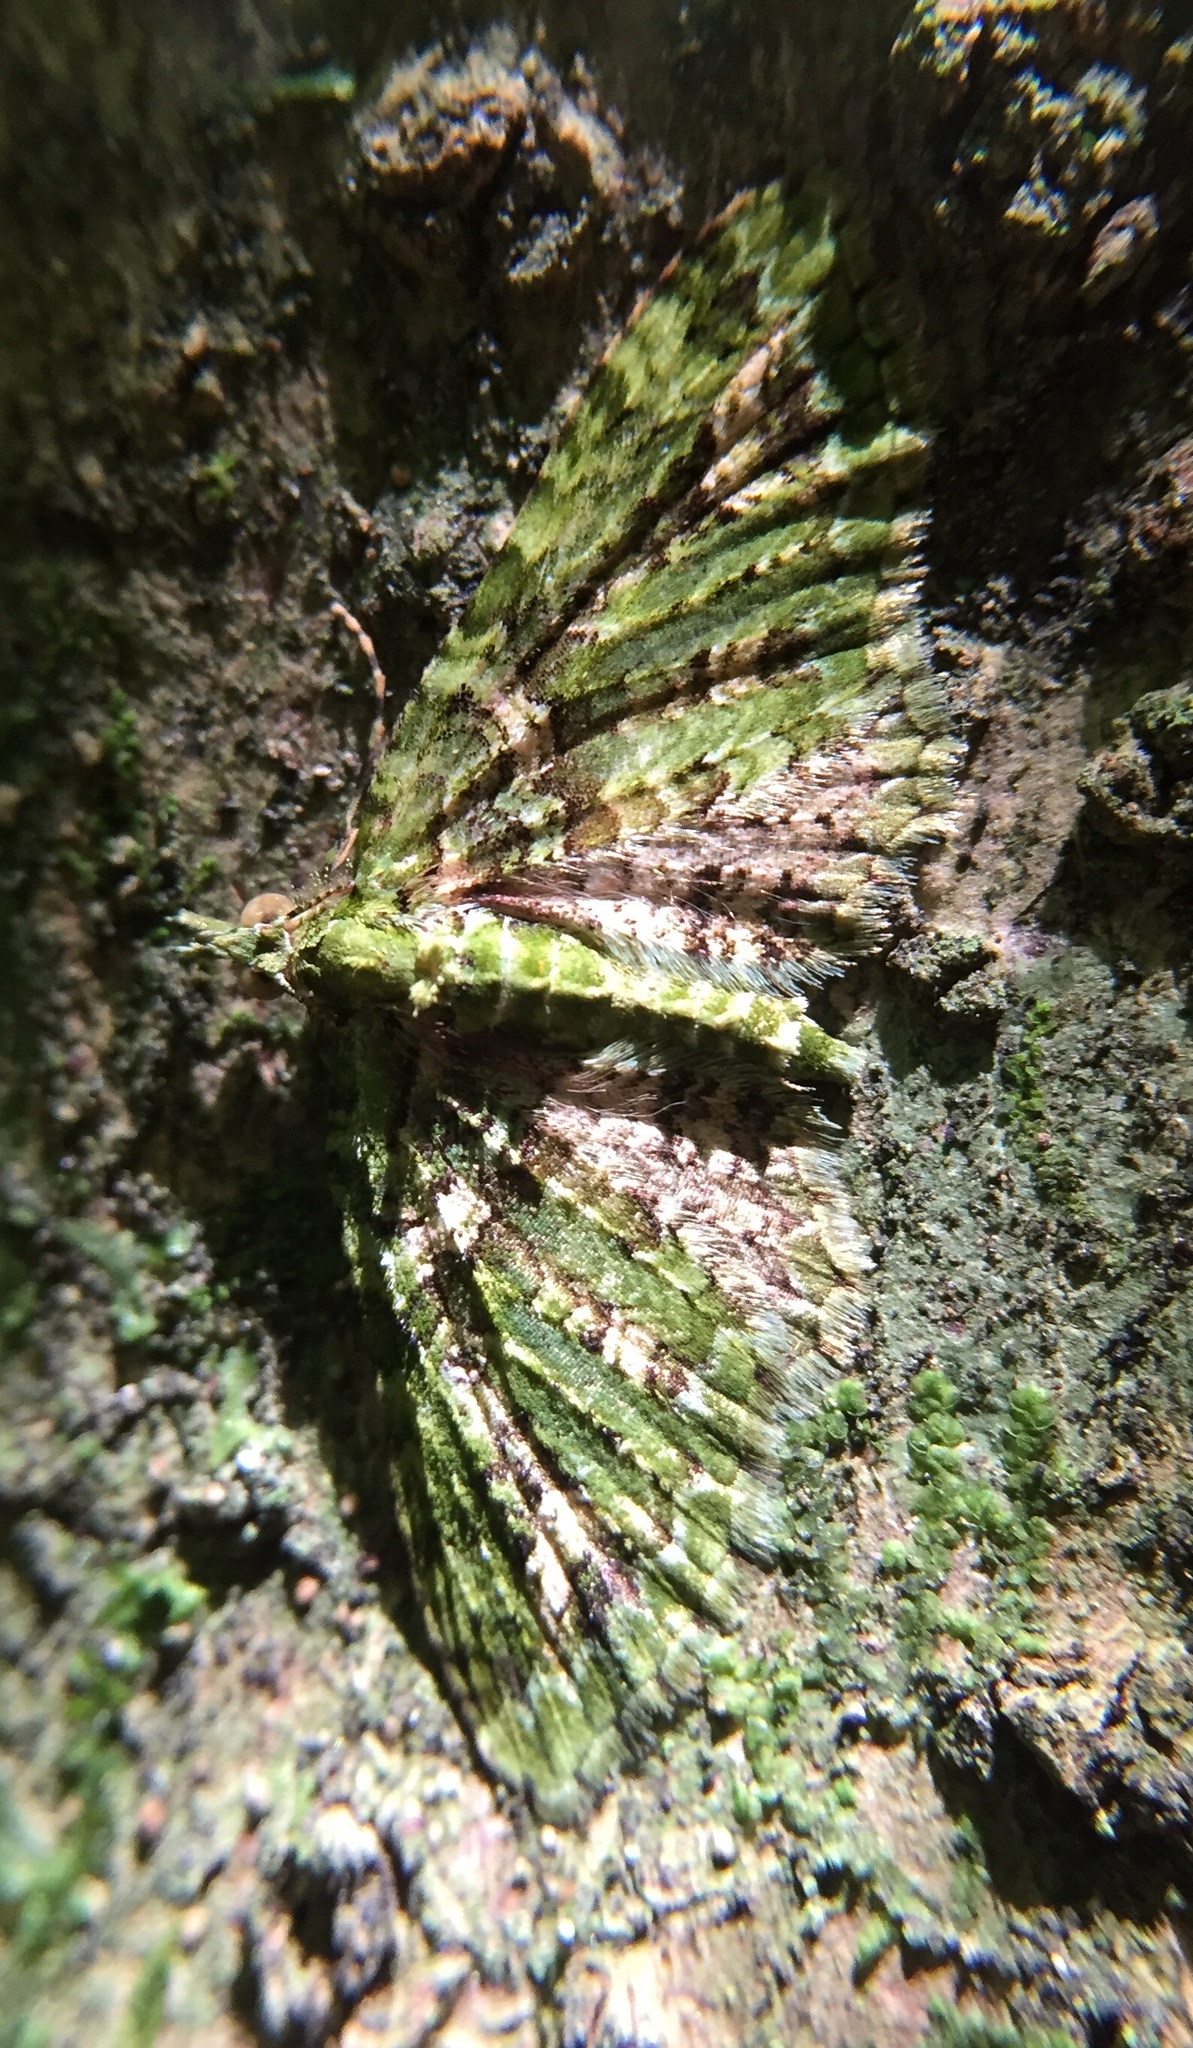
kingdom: Animalia
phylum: Arthropoda
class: Insecta
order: Lepidoptera
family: Geometridae
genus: Pasiphila
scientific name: Pasiphila muscosata
